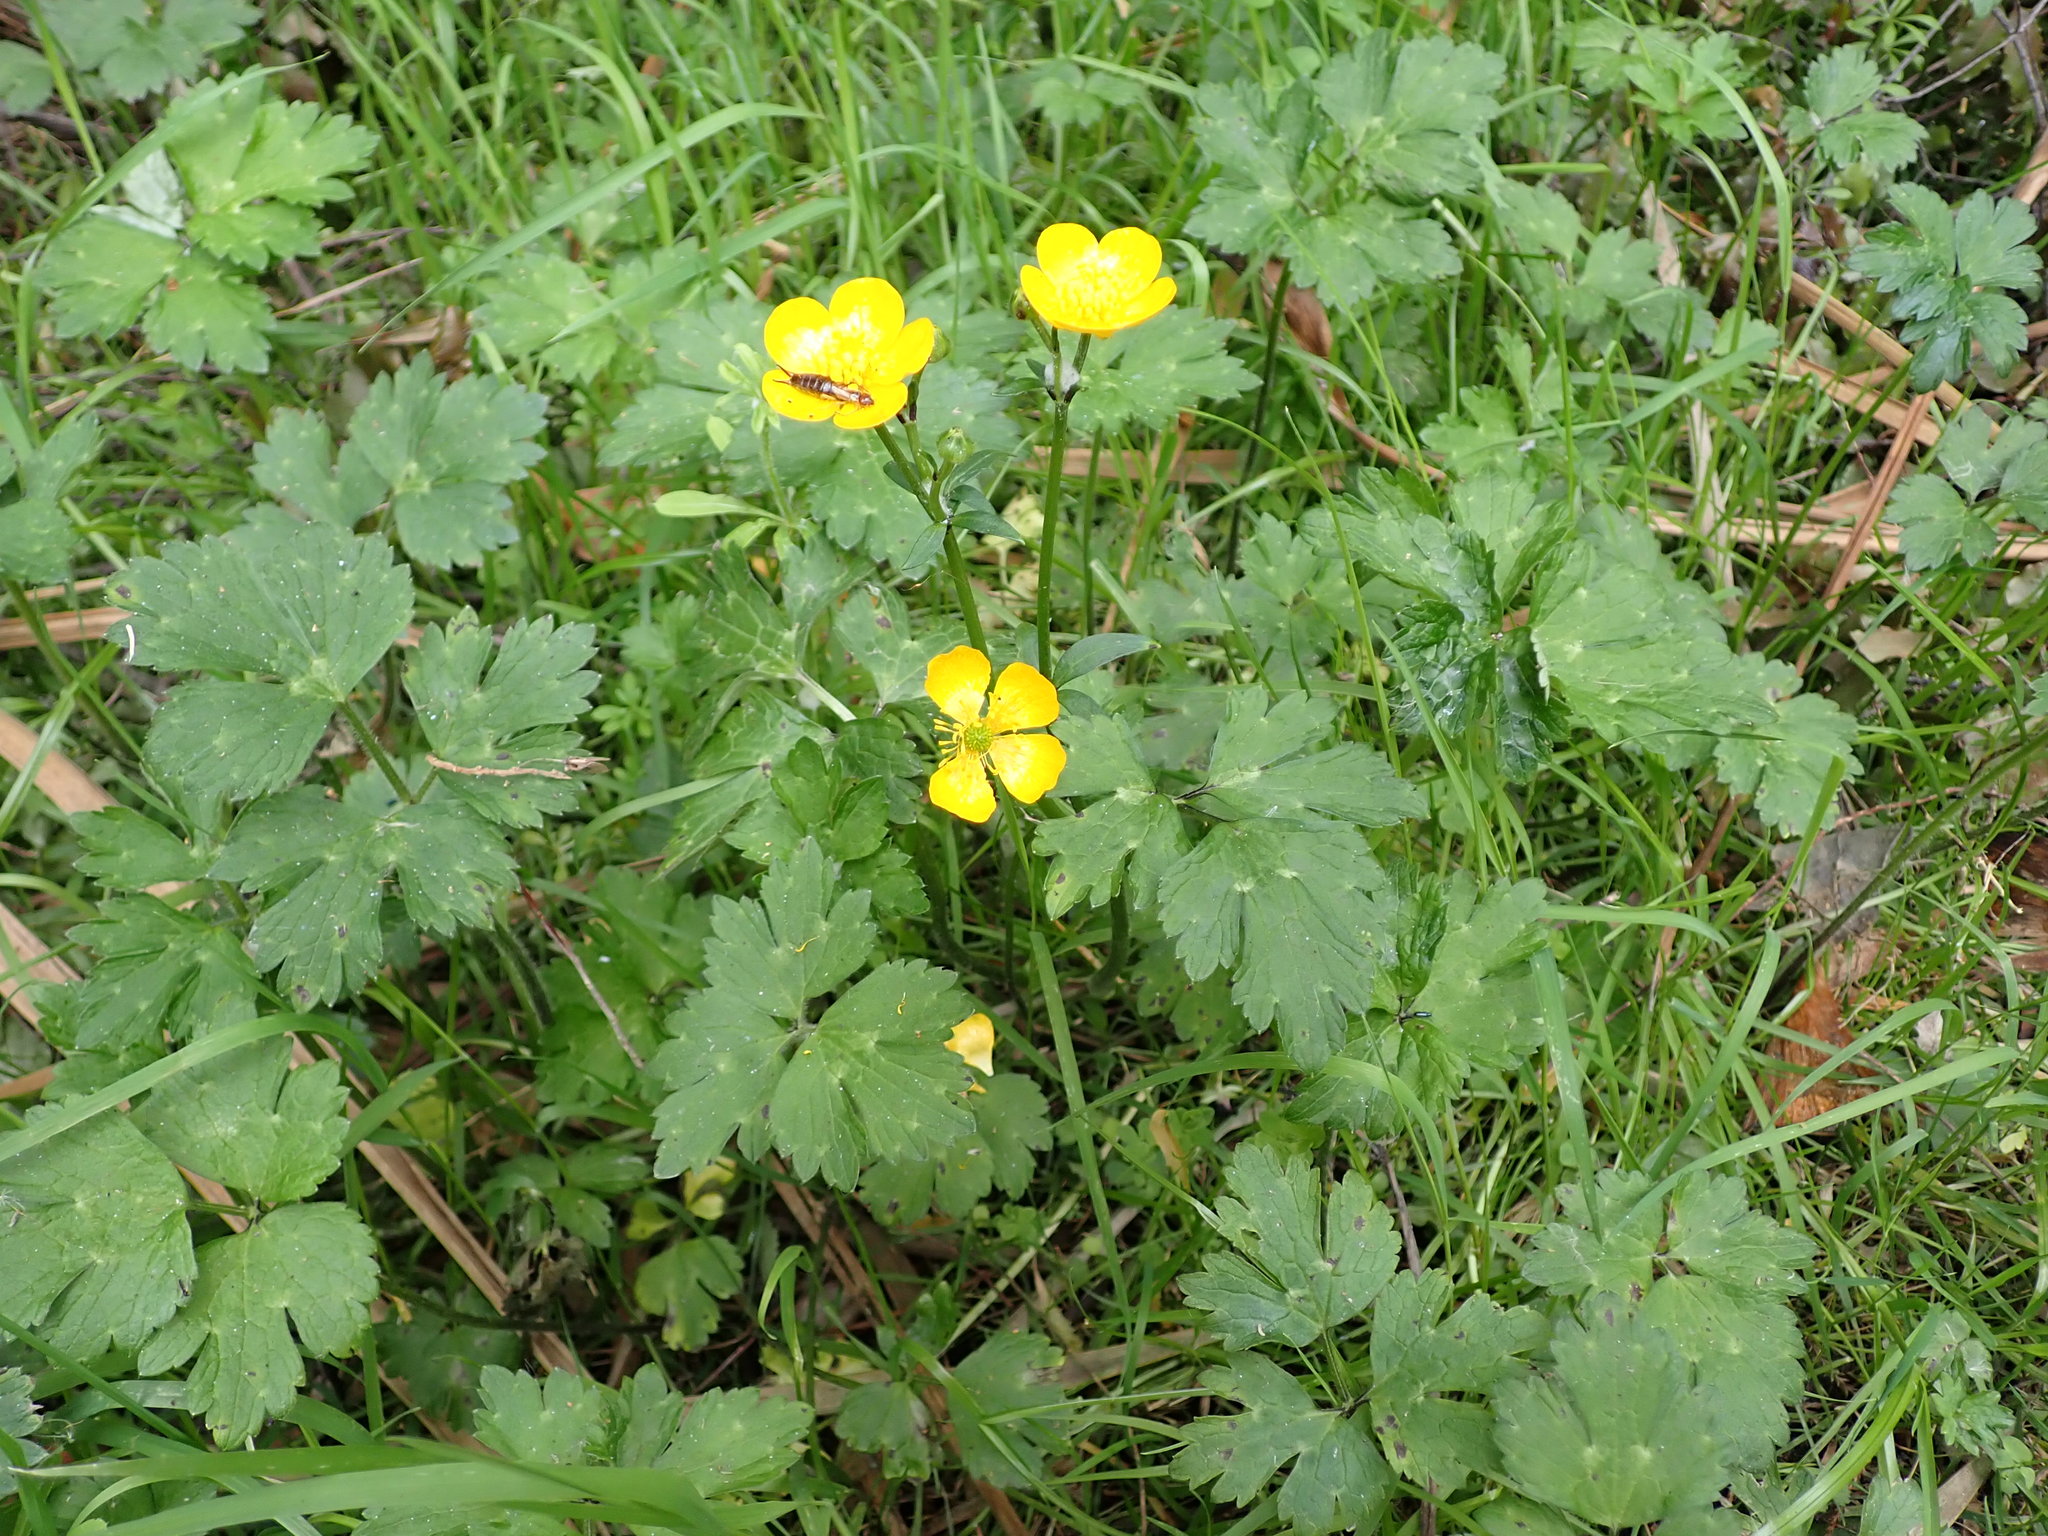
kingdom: Plantae
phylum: Tracheophyta
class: Magnoliopsida
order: Ranunculales
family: Ranunculaceae
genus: Ranunculus
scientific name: Ranunculus repens
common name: Creeping buttercup
